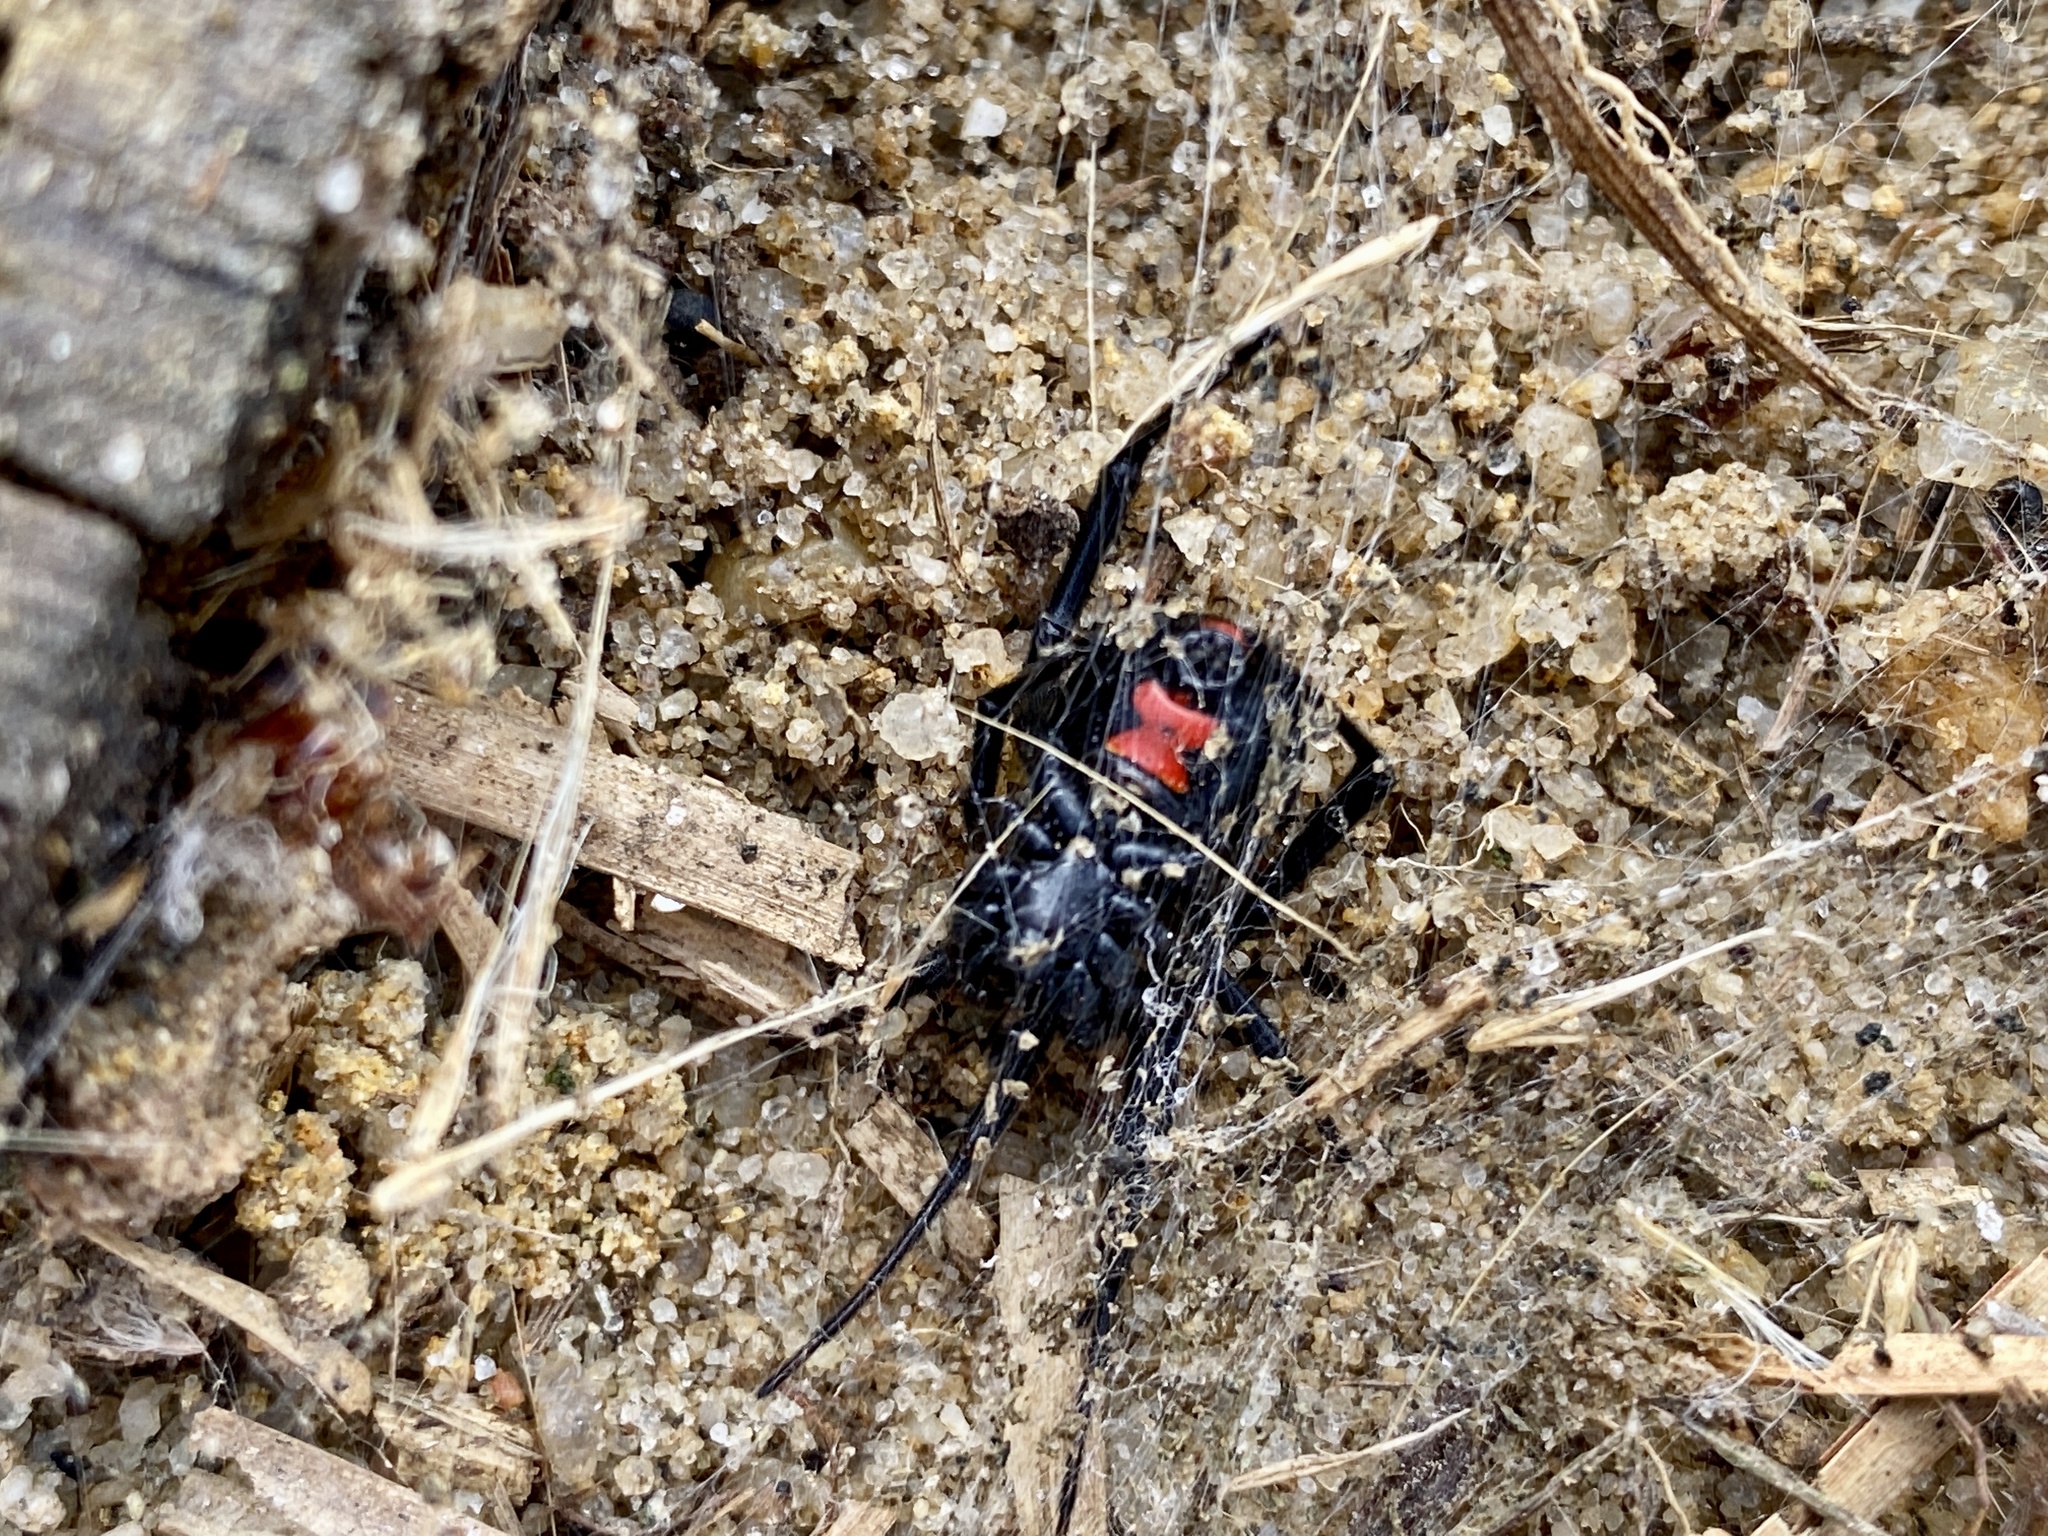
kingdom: Animalia
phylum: Arthropoda
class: Arachnida
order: Araneae
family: Theridiidae
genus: Latrodectus
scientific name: Latrodectus mactans
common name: Cobweb spiders
